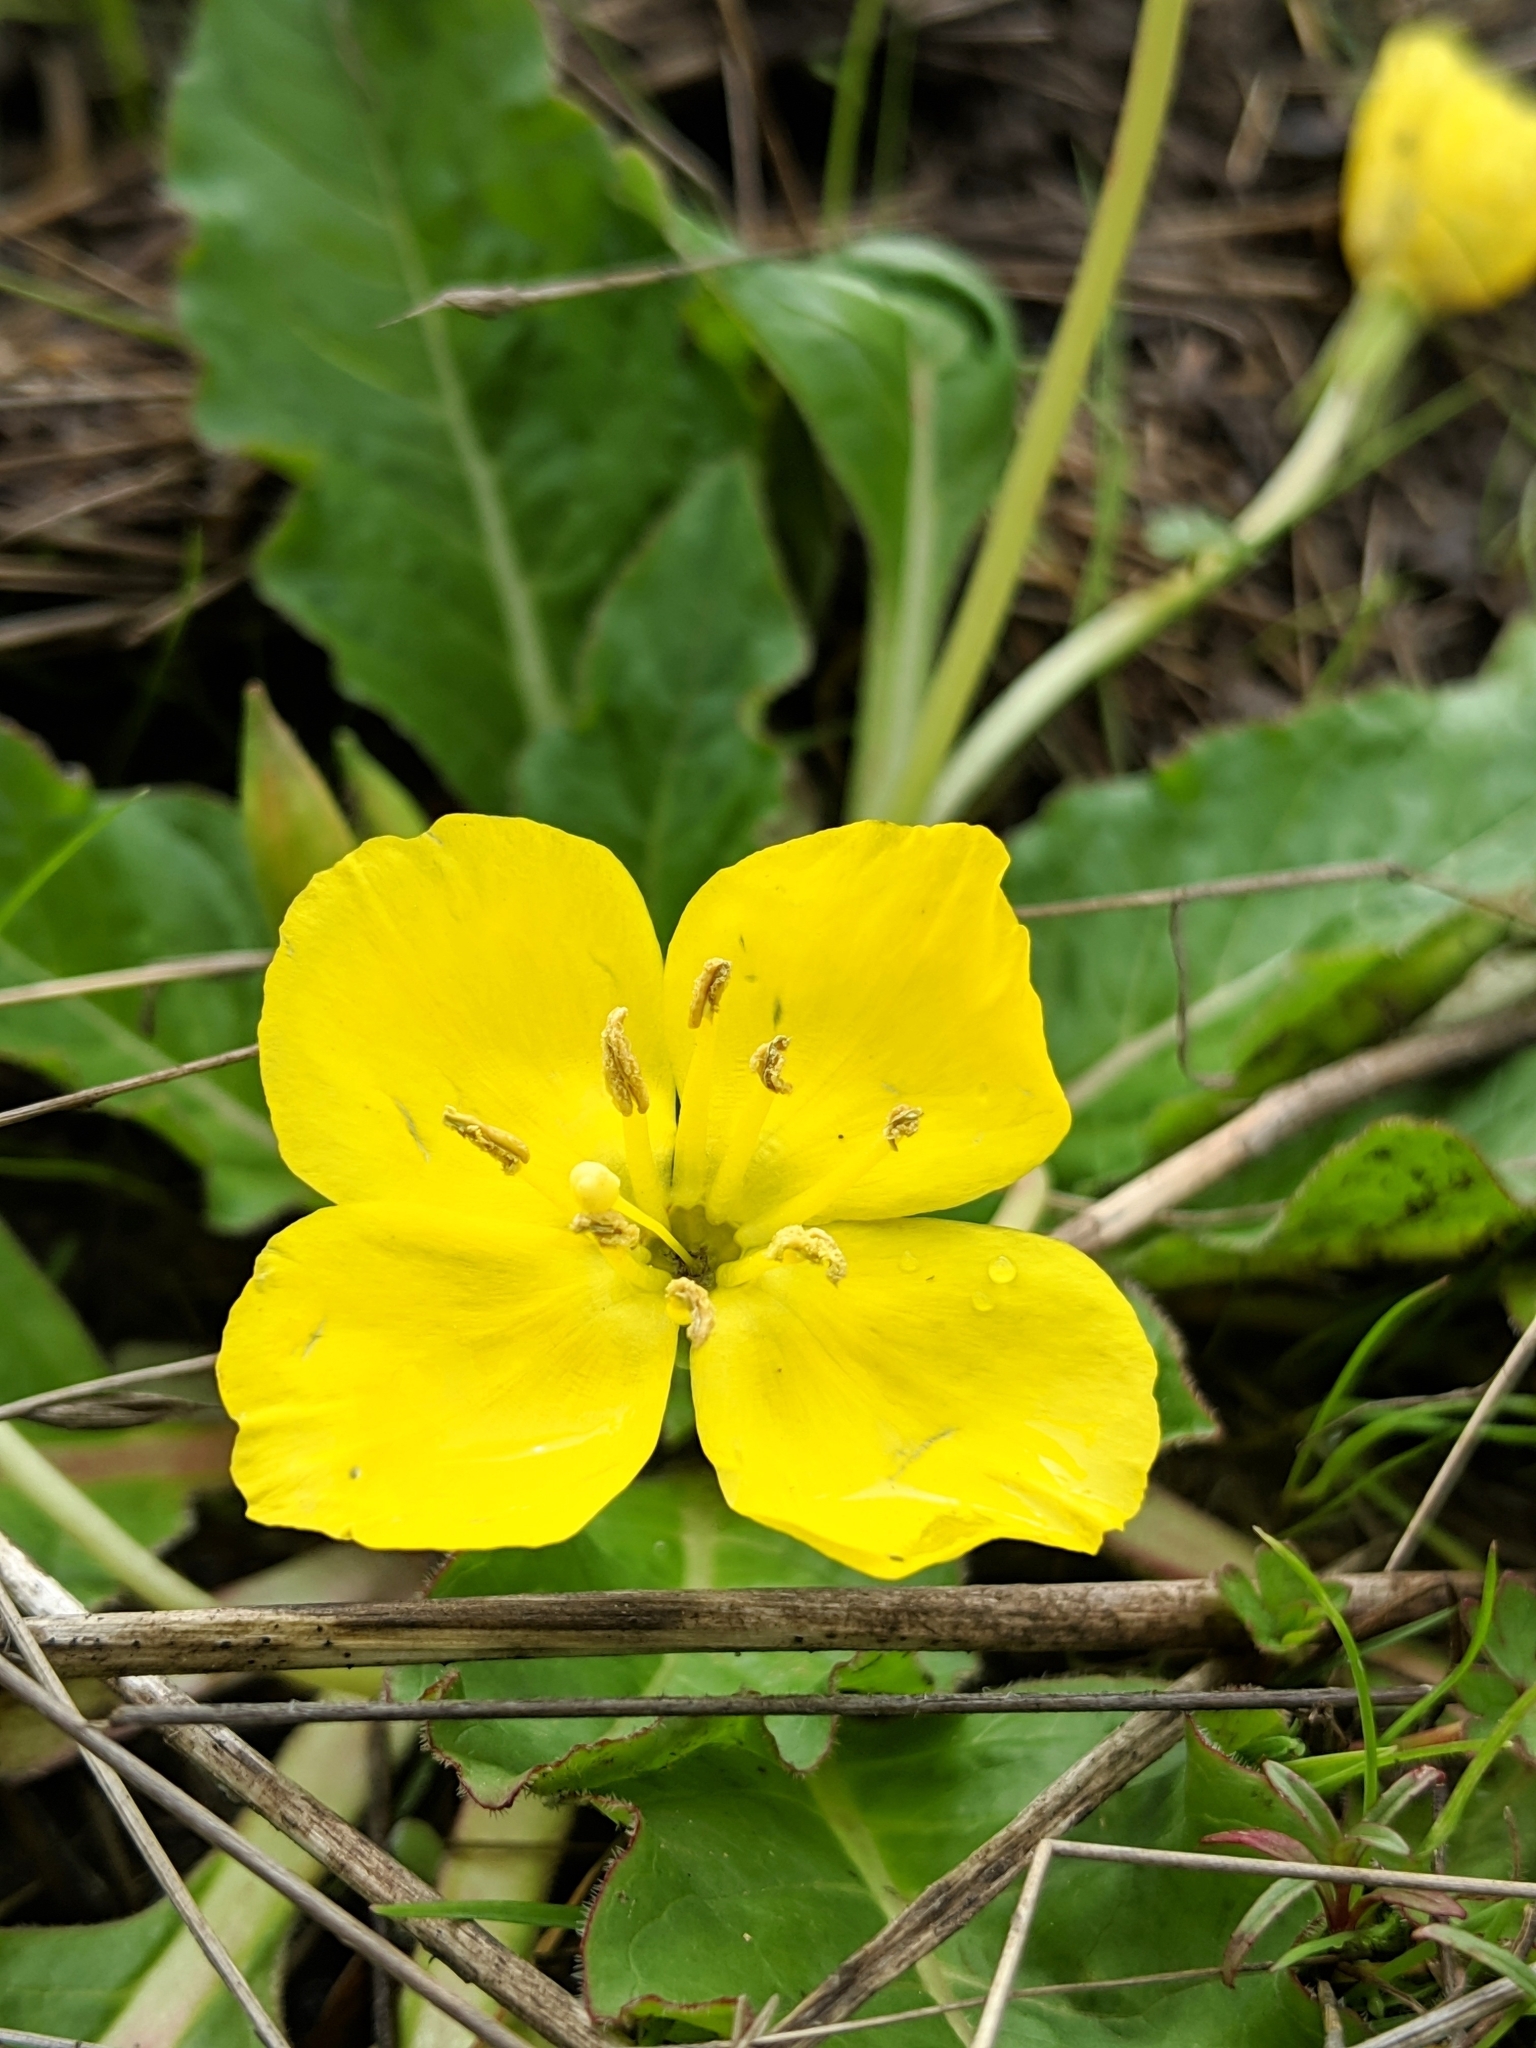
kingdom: Plantae
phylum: Tracheophyta
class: Magnoliopsida
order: Myrtales
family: Onagraceae
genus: Taraxia
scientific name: Taraxia ovata
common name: Goldeneggs
